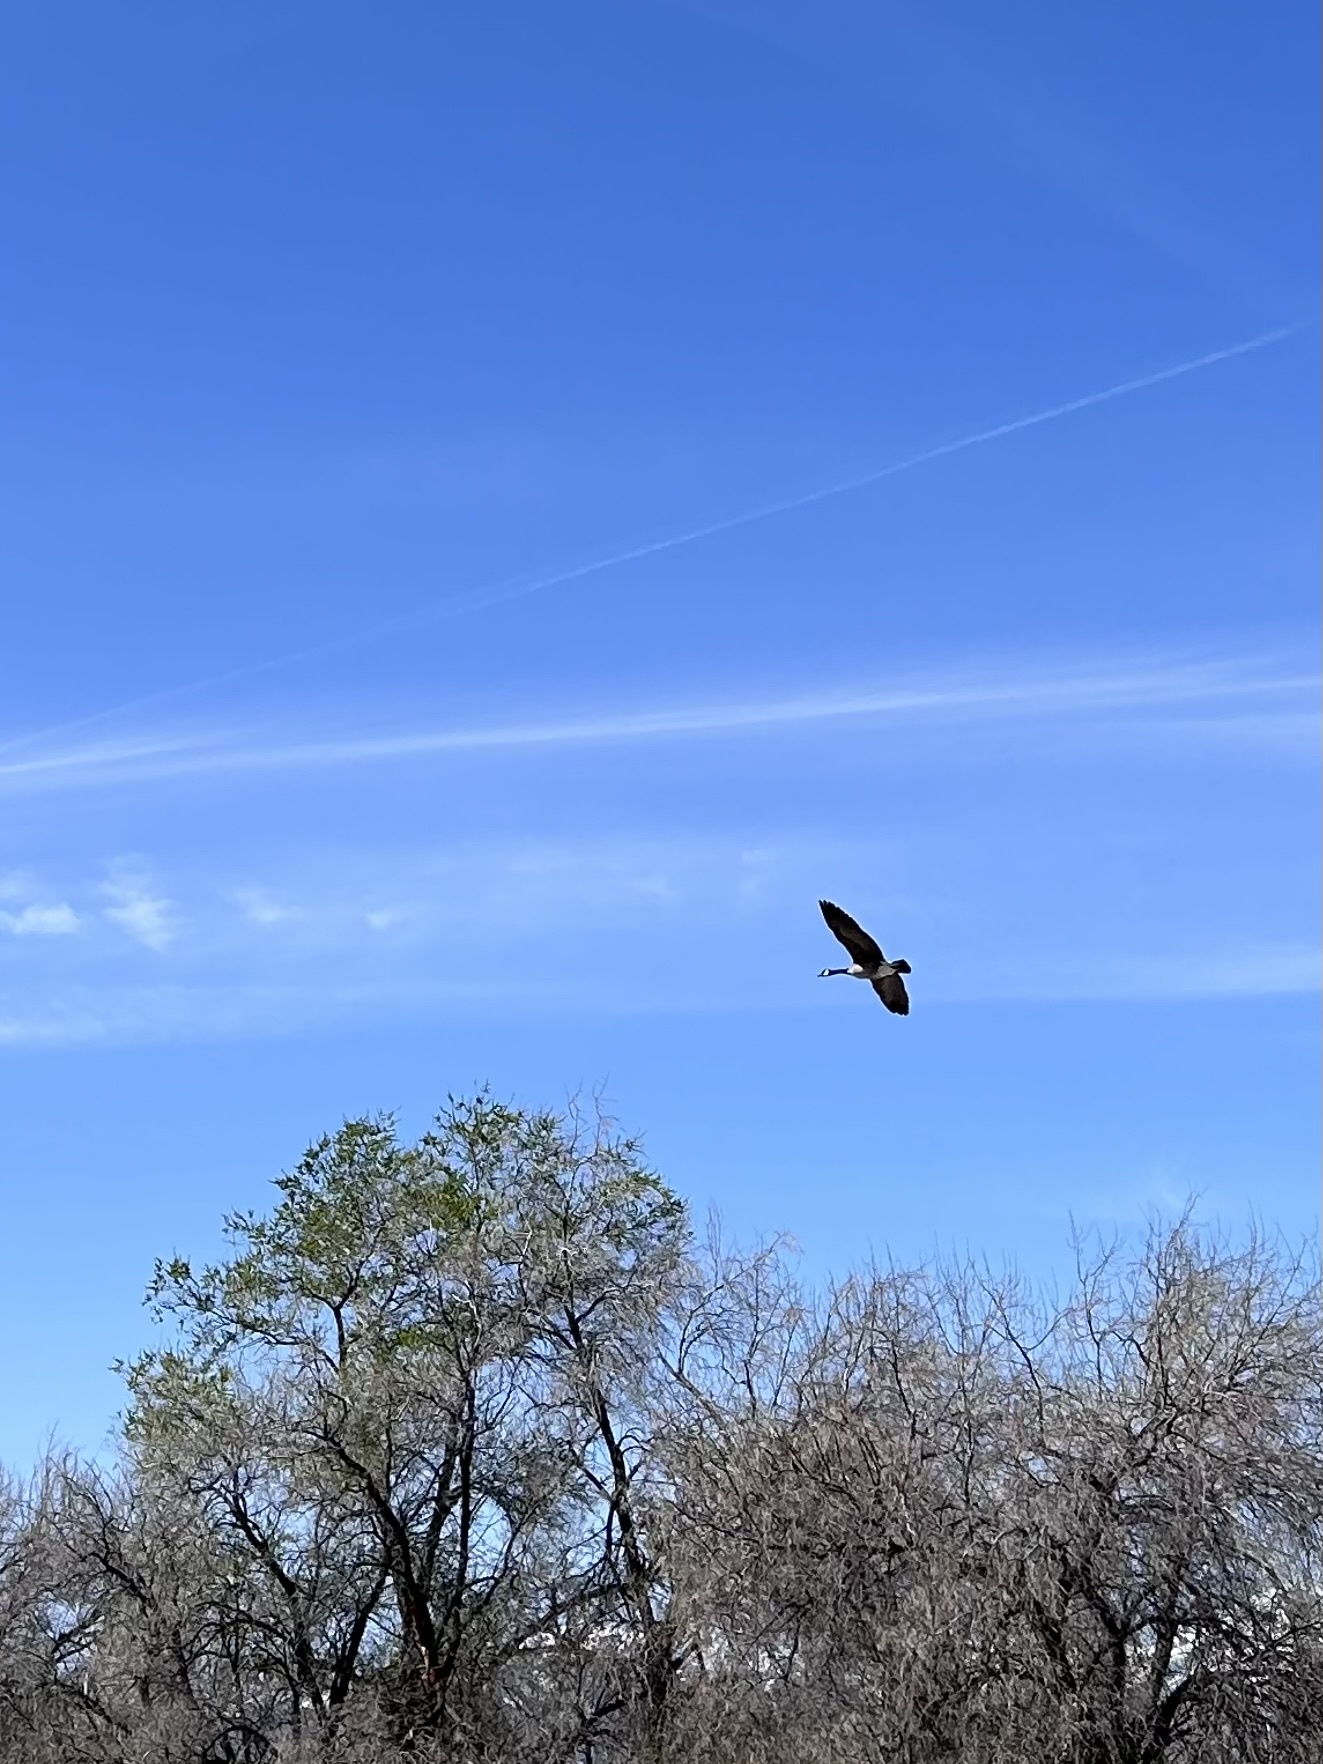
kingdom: Animalia
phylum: Chordata
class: Aves
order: Anseriformes
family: Anatidae
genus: Branta
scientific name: Branta canadensis
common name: Canada goose
